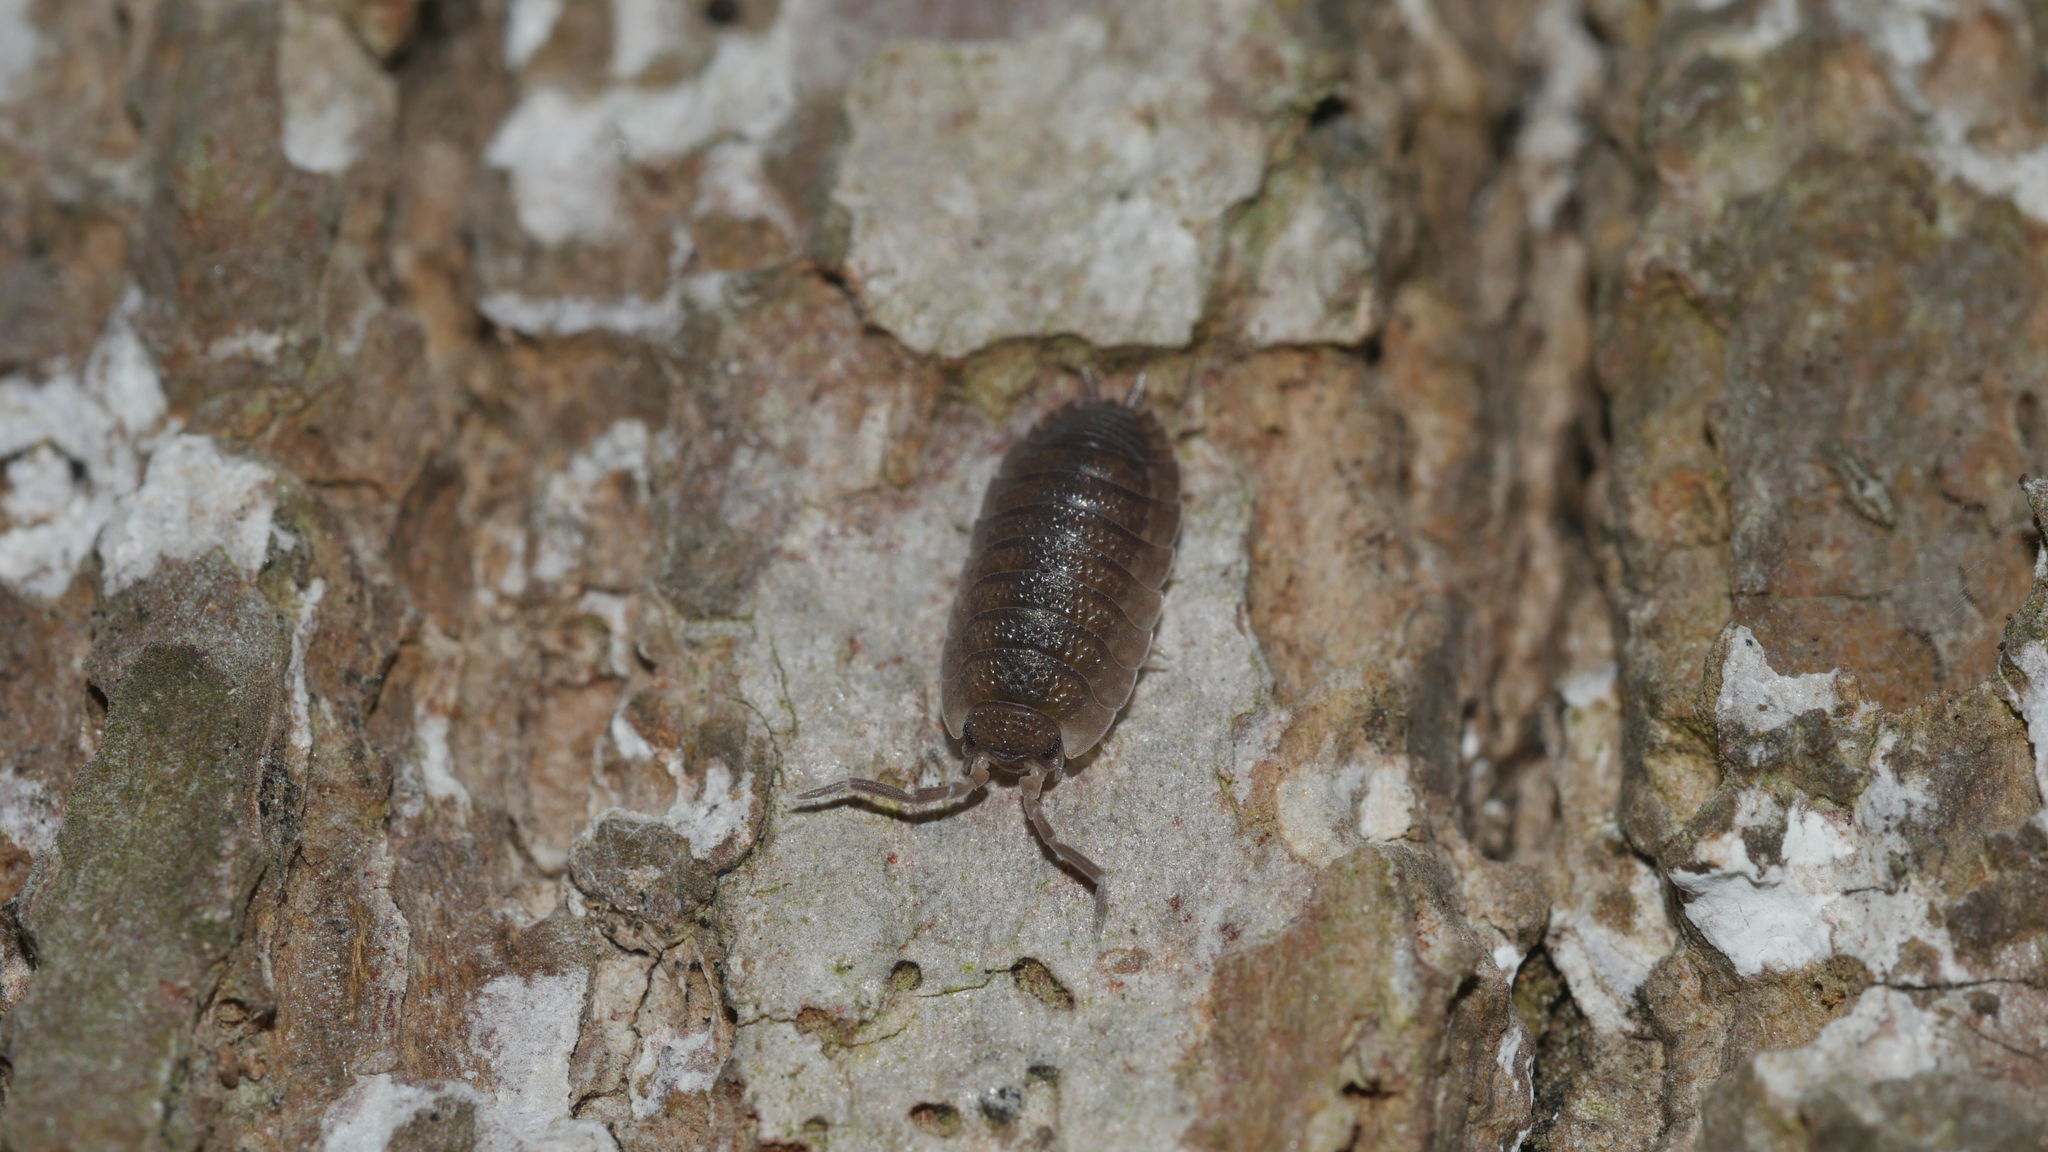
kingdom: Animalia
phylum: Arthropoda
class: Malacostraca
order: Isopoda
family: Porcellionidae
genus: Porcellio
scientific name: Porcellio scaber
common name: Common rough woodlouse
